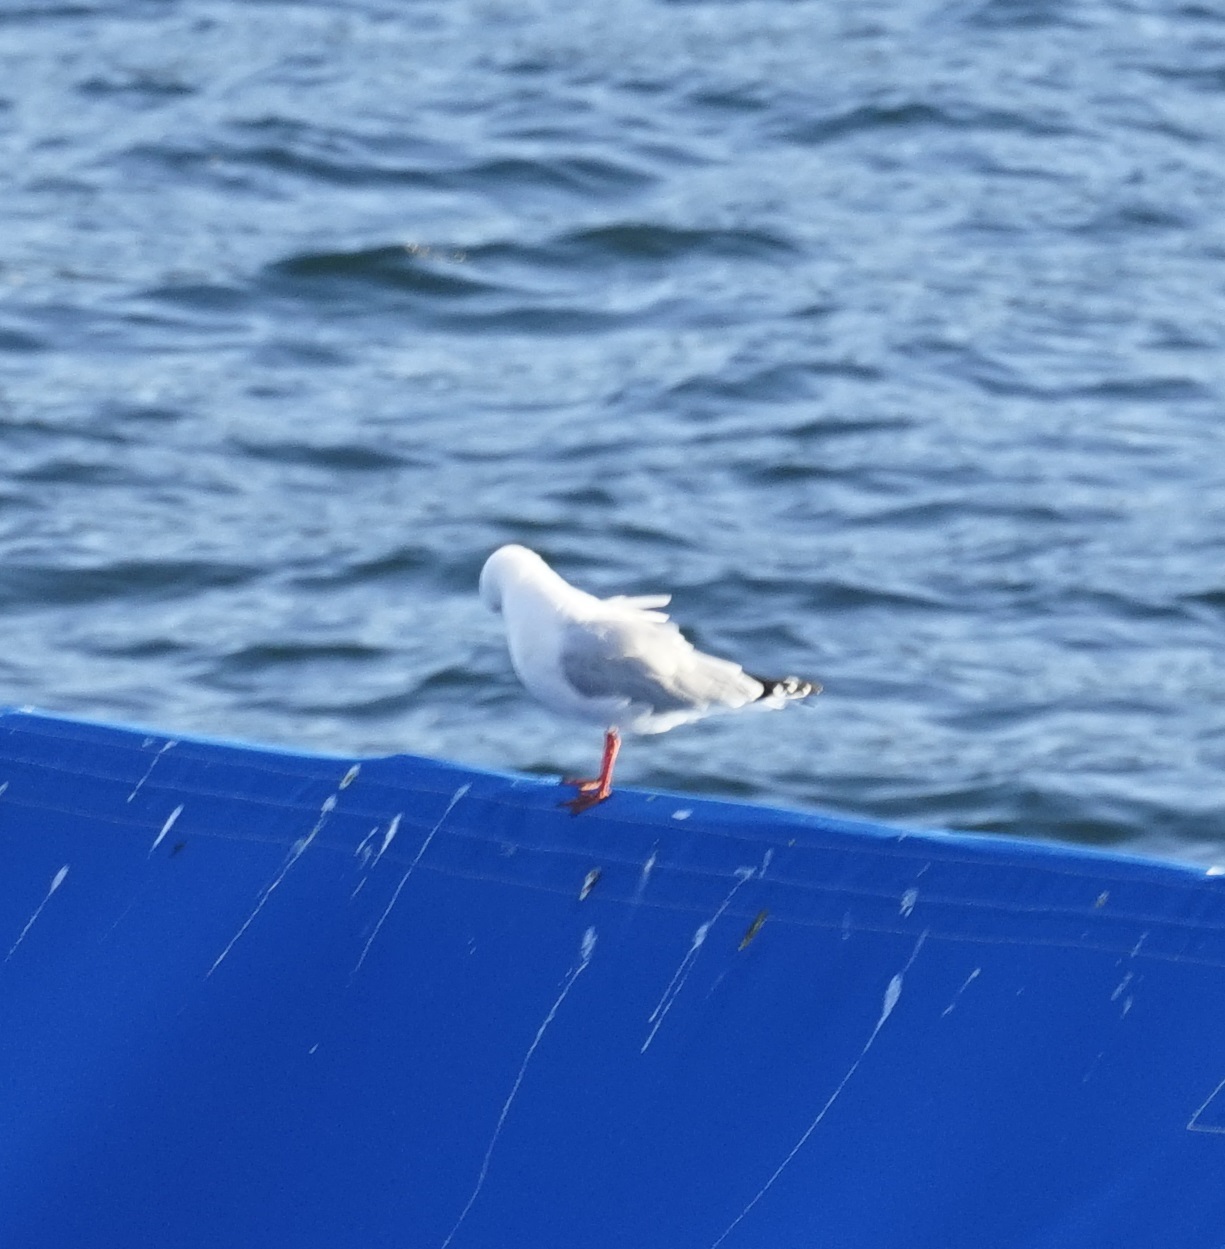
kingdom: Animalia
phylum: Chordata
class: Aves
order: Charadriiformes
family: Laridae
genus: Chroicocephalus
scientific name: Chroicocephalus novaehollandiae
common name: Silver gull
